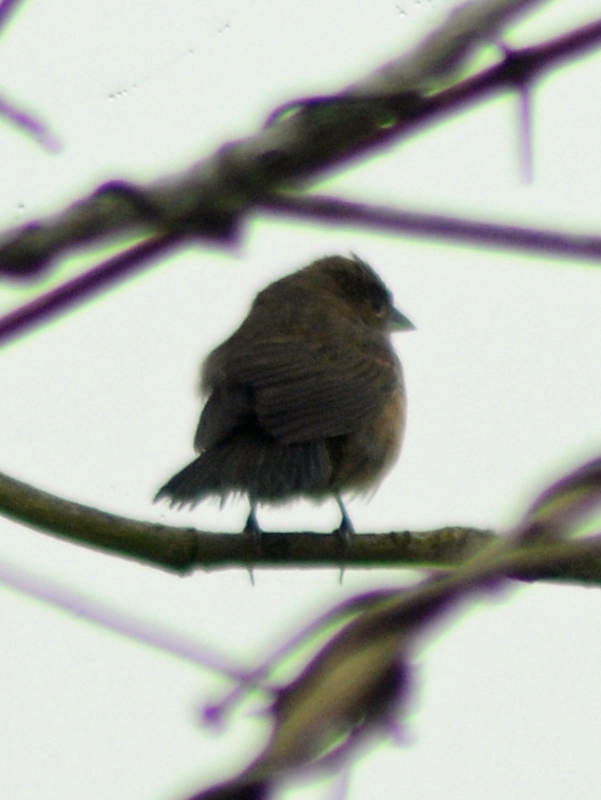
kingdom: Animalia
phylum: Chordata
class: Aves
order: Passeriformes
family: Thraupidae
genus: Volatinia
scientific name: Volatinia jacarina
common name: Blue-black grassquit
